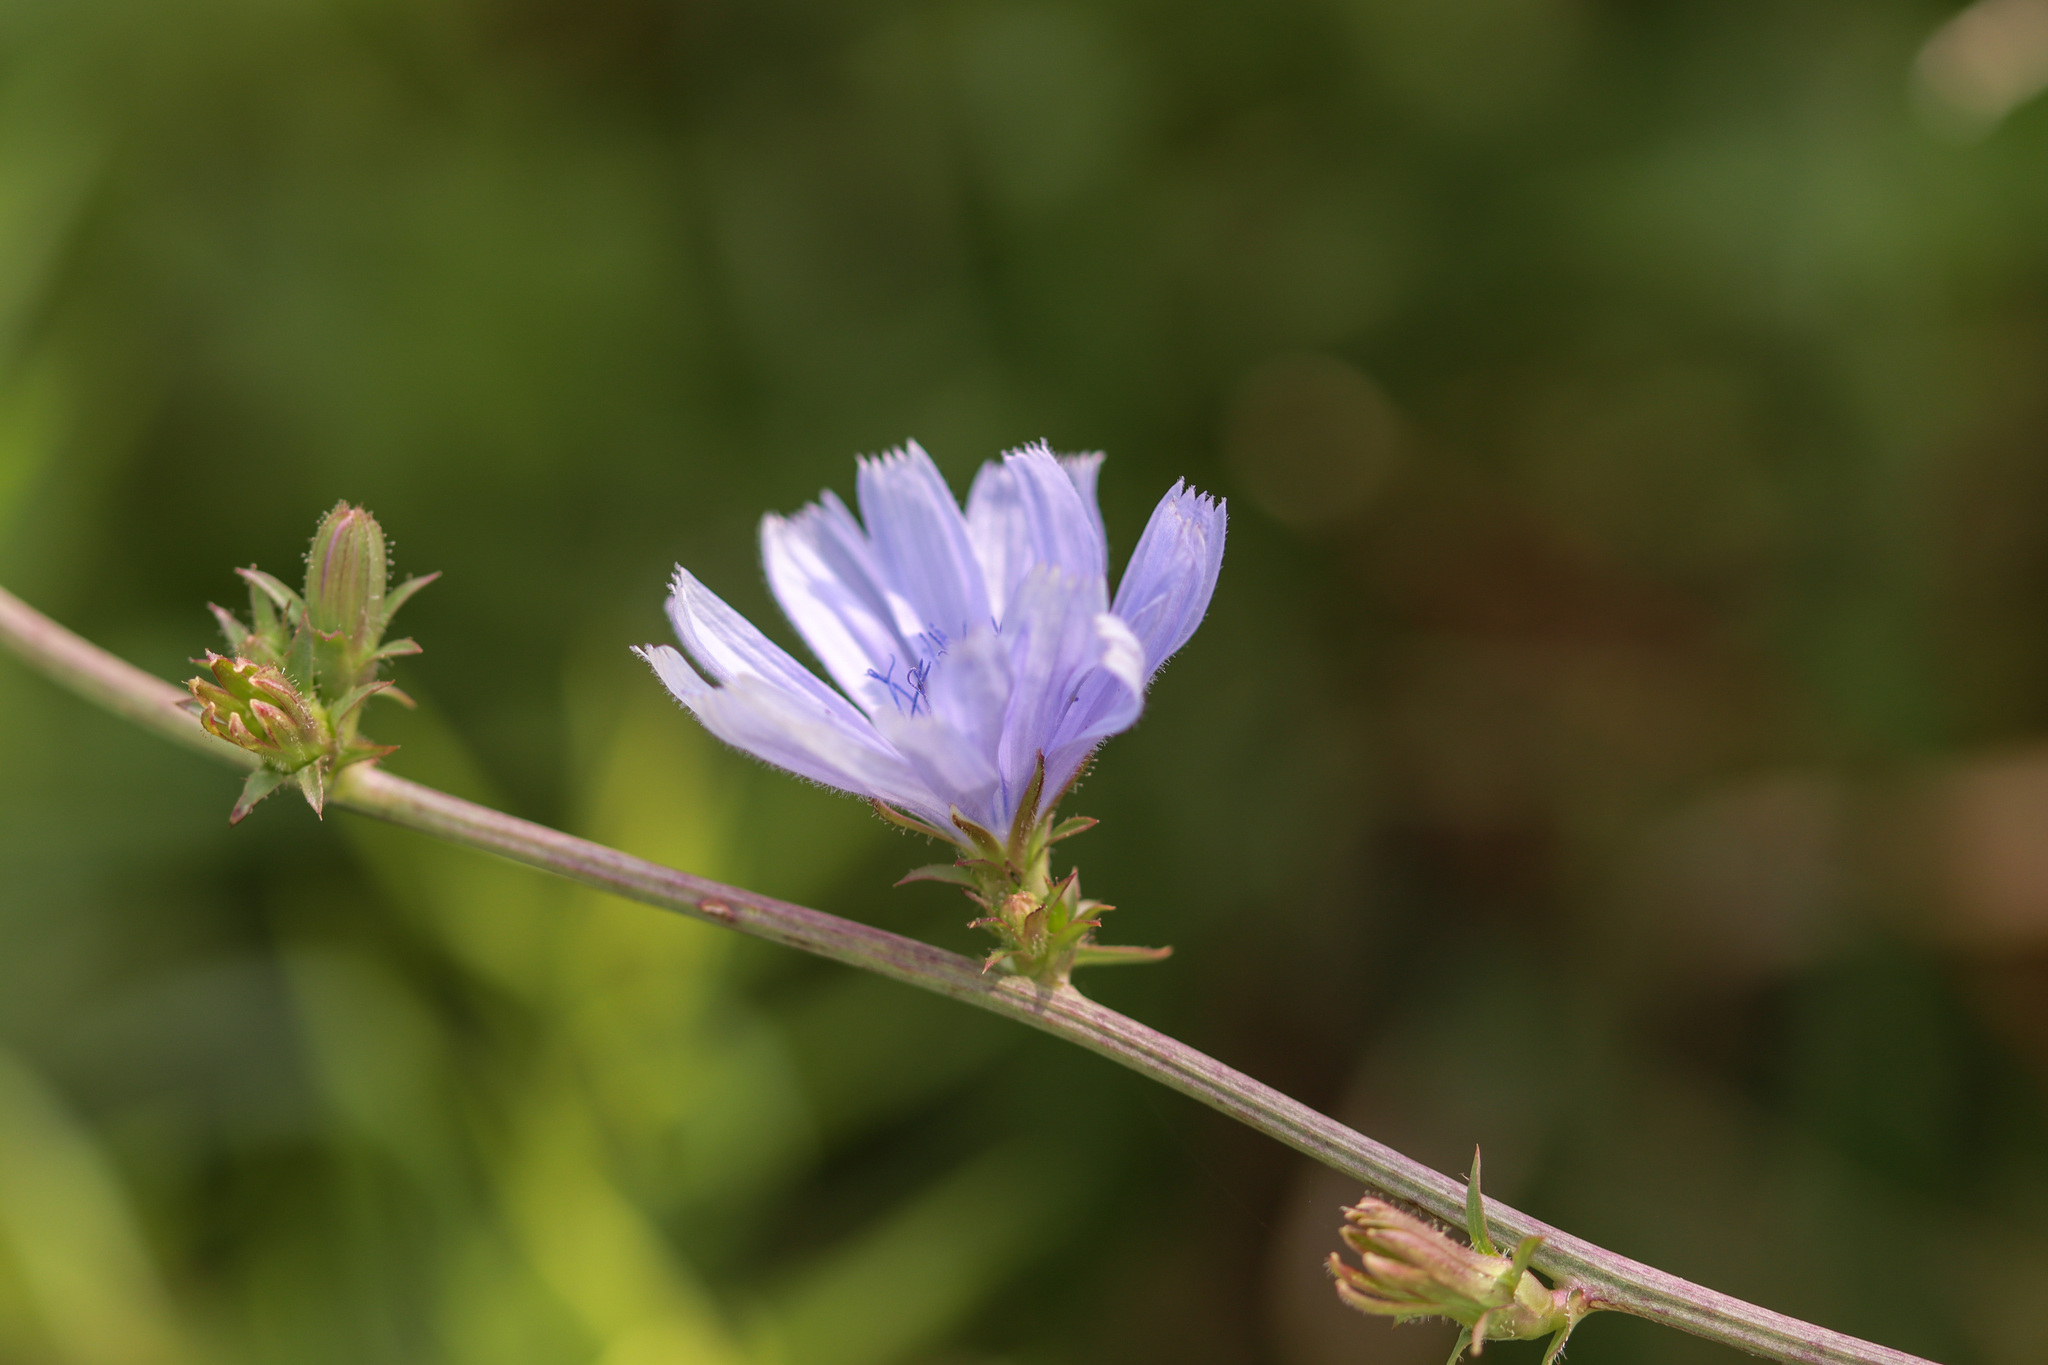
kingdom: Plantae
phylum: Tracheophyta
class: Magnoliopsida
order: Asterales
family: Asteraceae
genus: Cichorium
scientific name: Cichorium intybus
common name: Chicory
